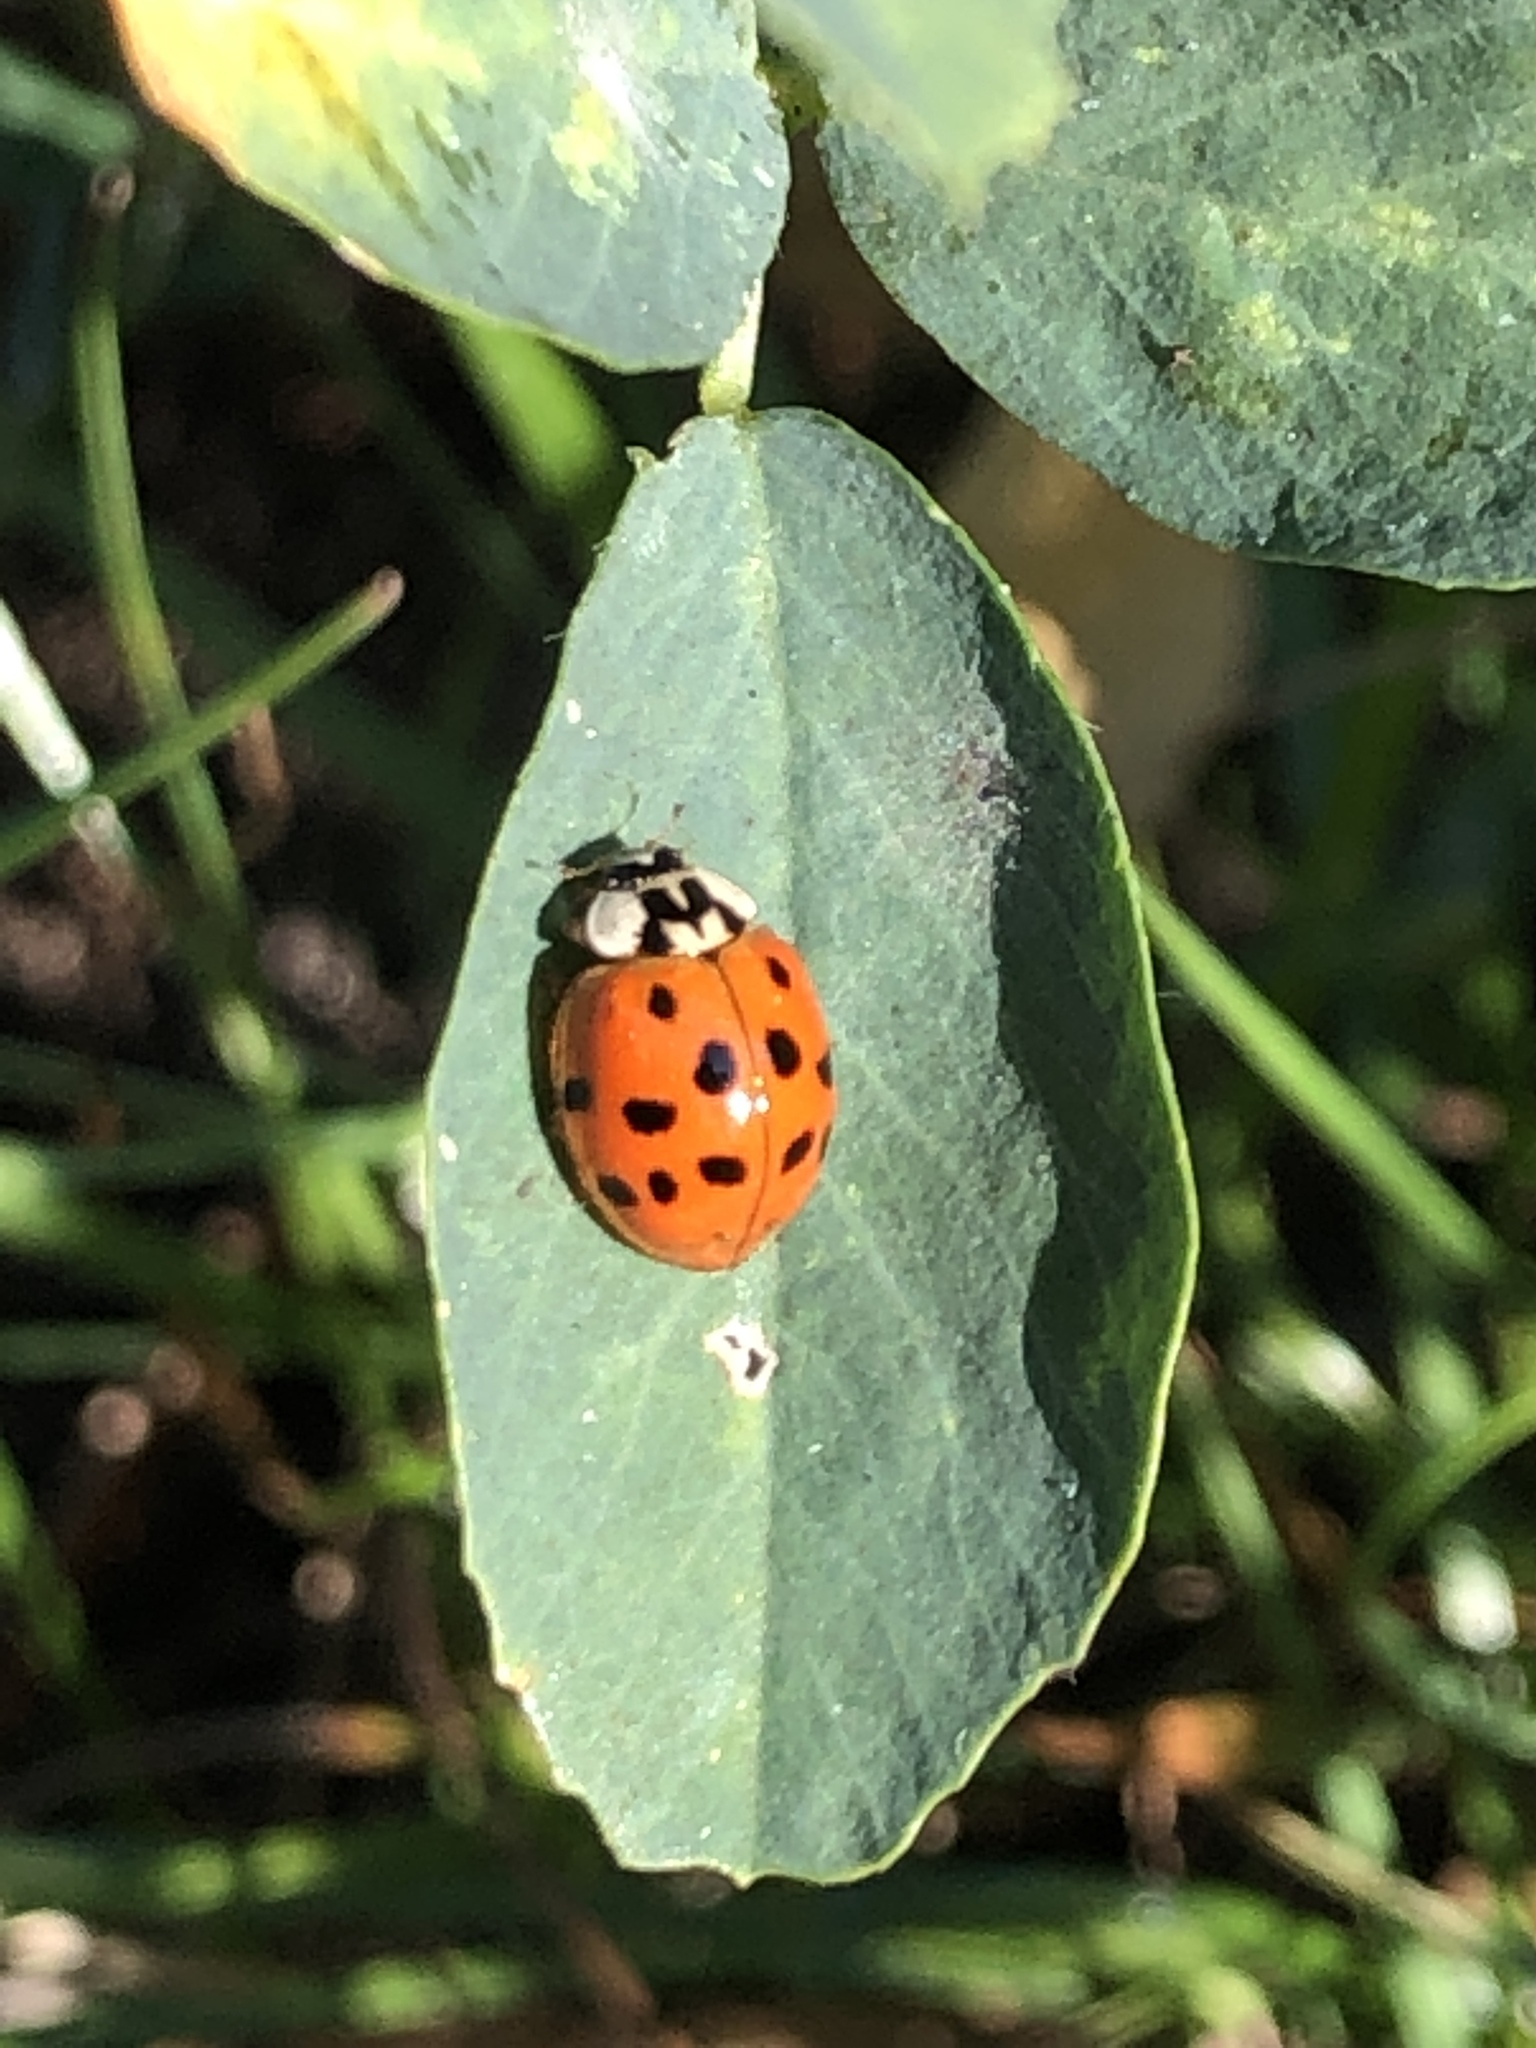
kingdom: Animalia
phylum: Arthropoda
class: Insecta
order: Coleoptera
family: Coccinellidae
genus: Harmonia
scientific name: Harmonia axyridis
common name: Harlequin ladybird
